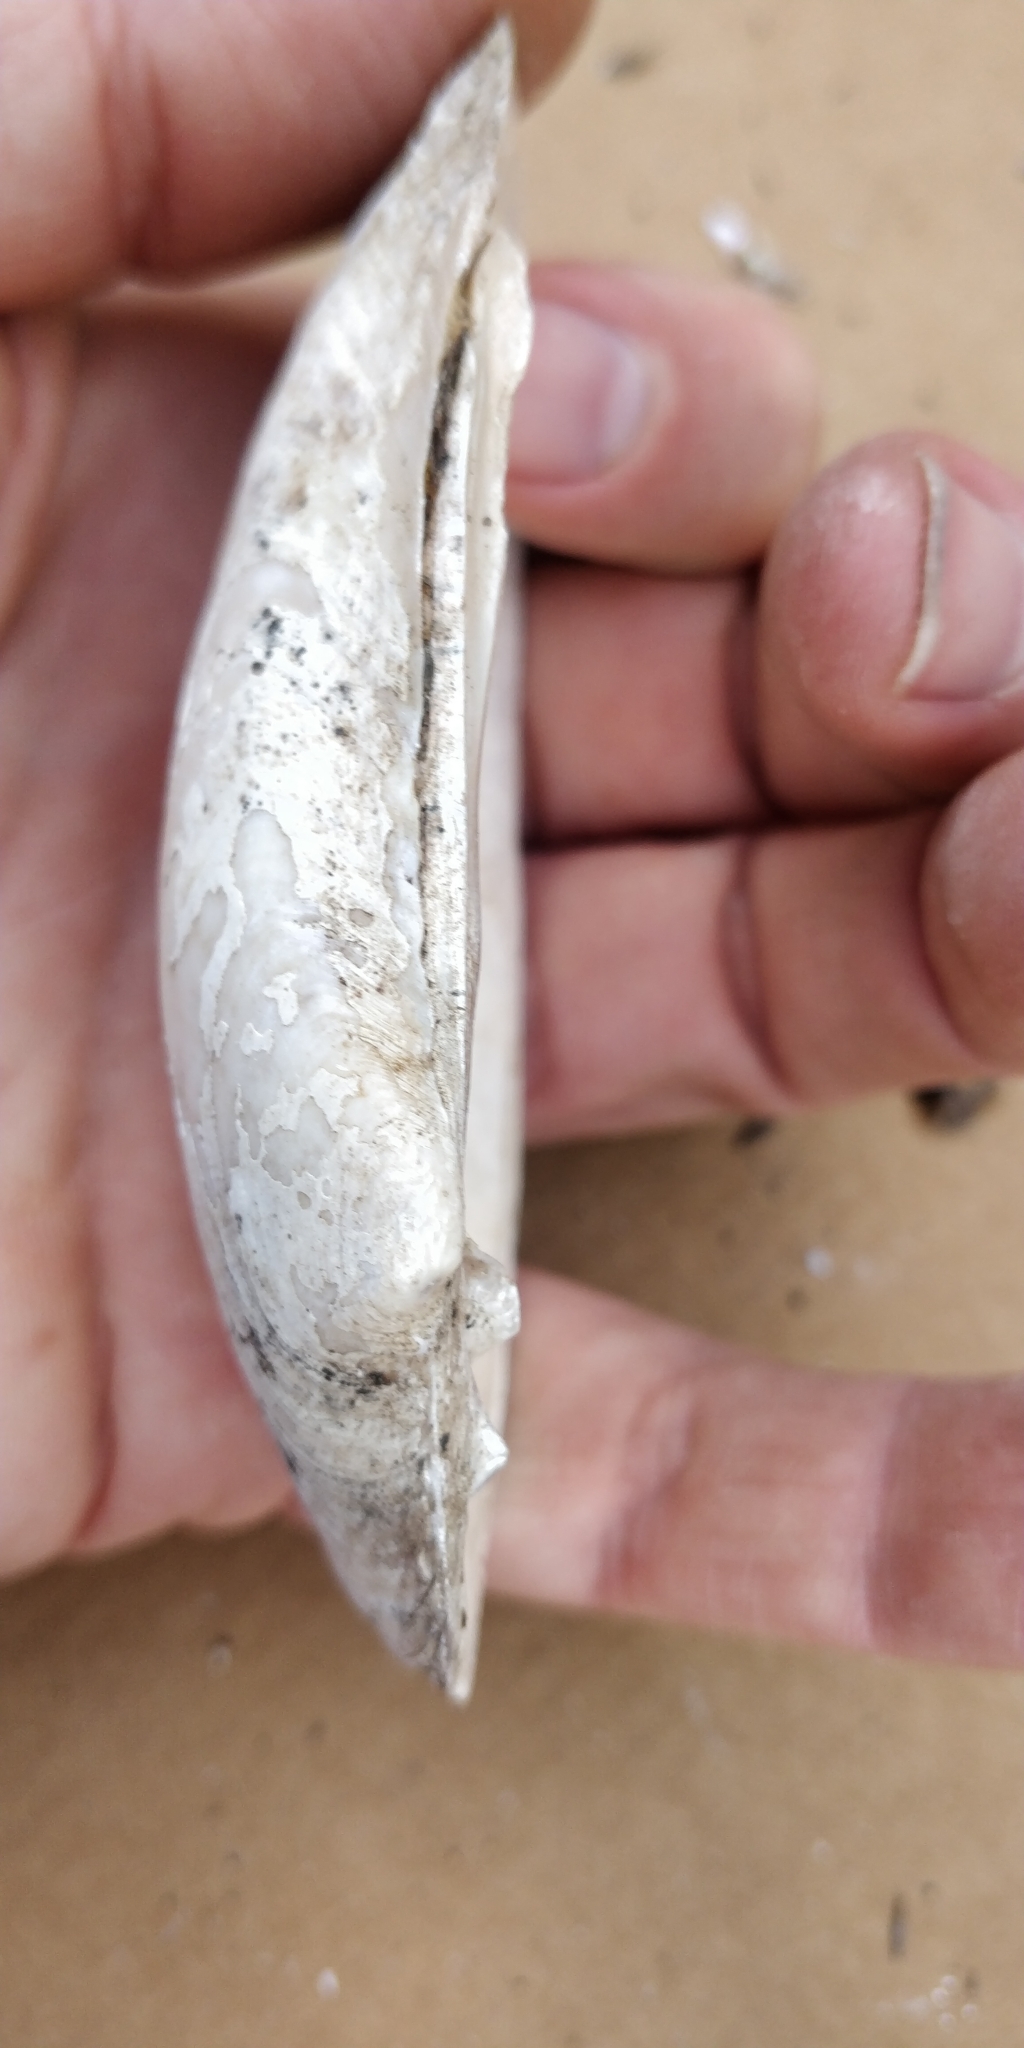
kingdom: Animalia
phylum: Mollusca
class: Bivalvia
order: Unionida
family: Unionidae
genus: Lampsilis
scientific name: Lampsilis siliquoidea
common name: Fatmucket
